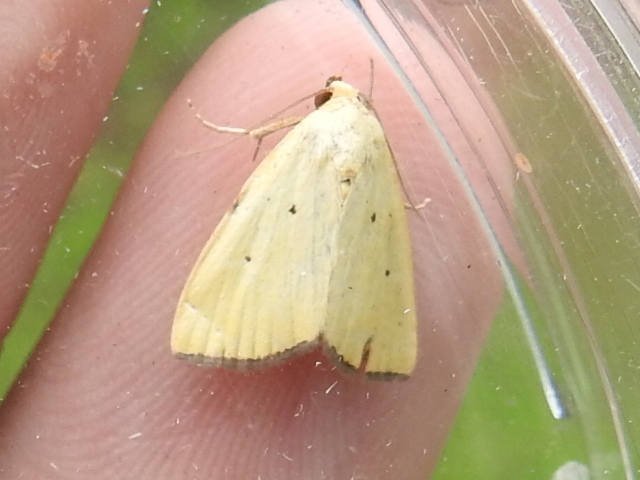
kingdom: Animalia
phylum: Arthropoda
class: Insecta
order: Lepidoptera
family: Noctuidae
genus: Marimatha
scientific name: Marimatha nigrofimbria
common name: Black-bordered lemon moth
